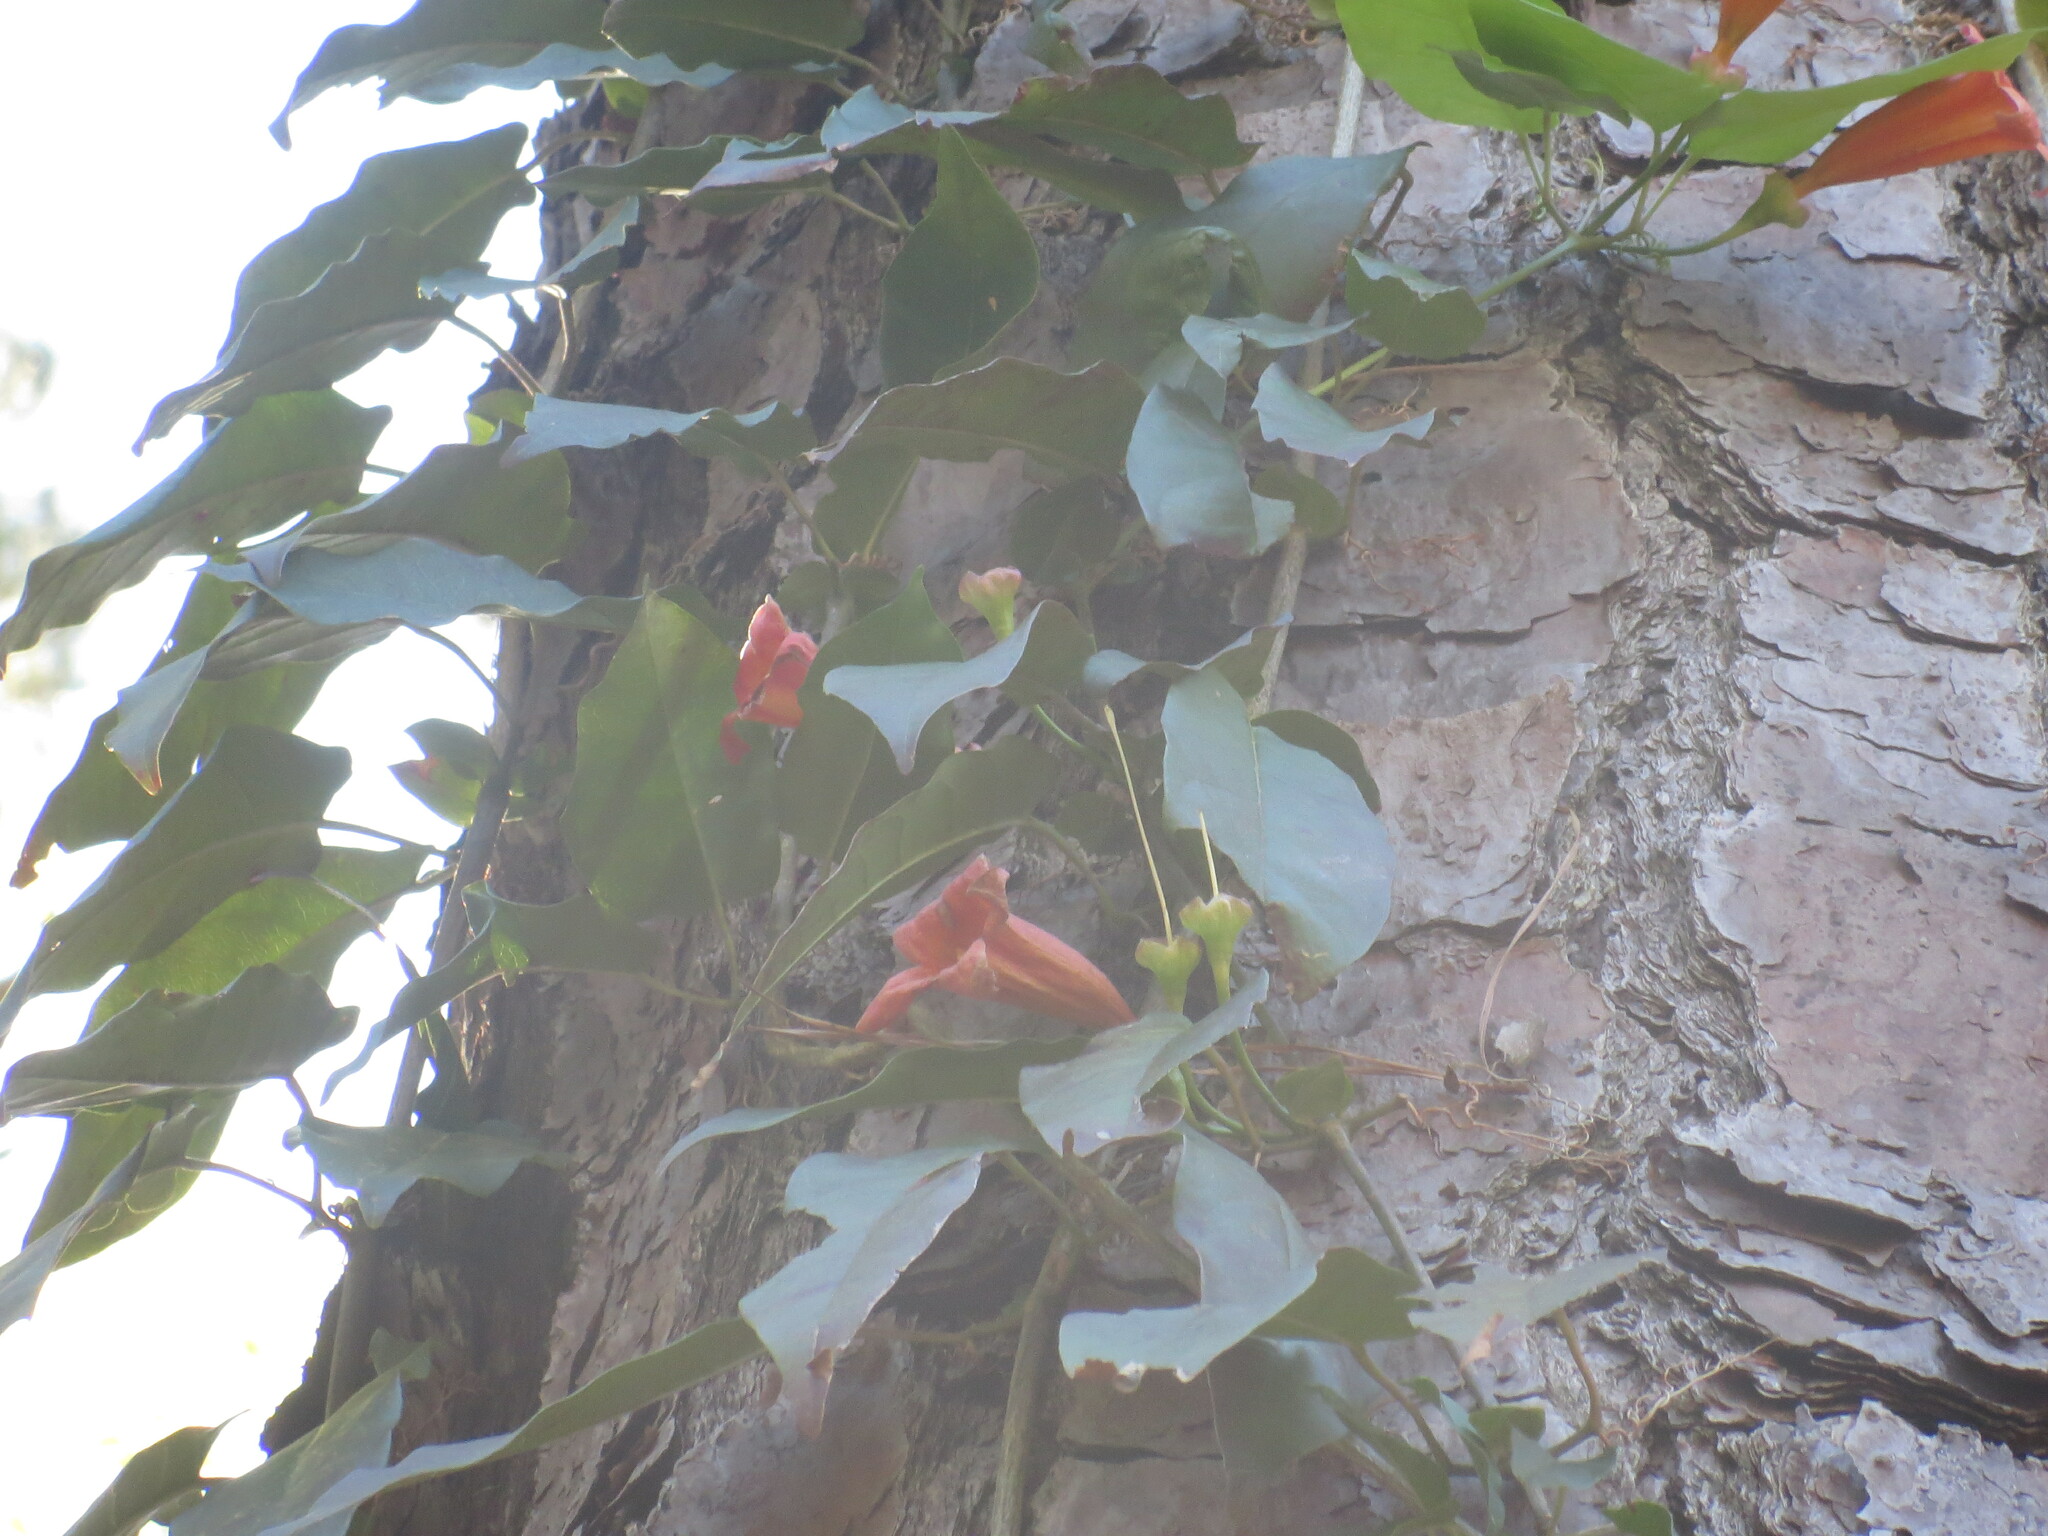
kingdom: Plantae
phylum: Tracheophyta
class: Magnoliopsida
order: Lamiales
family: Bignoniaceae
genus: Bignonia
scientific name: Bignonia capreolata
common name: Crossvine
